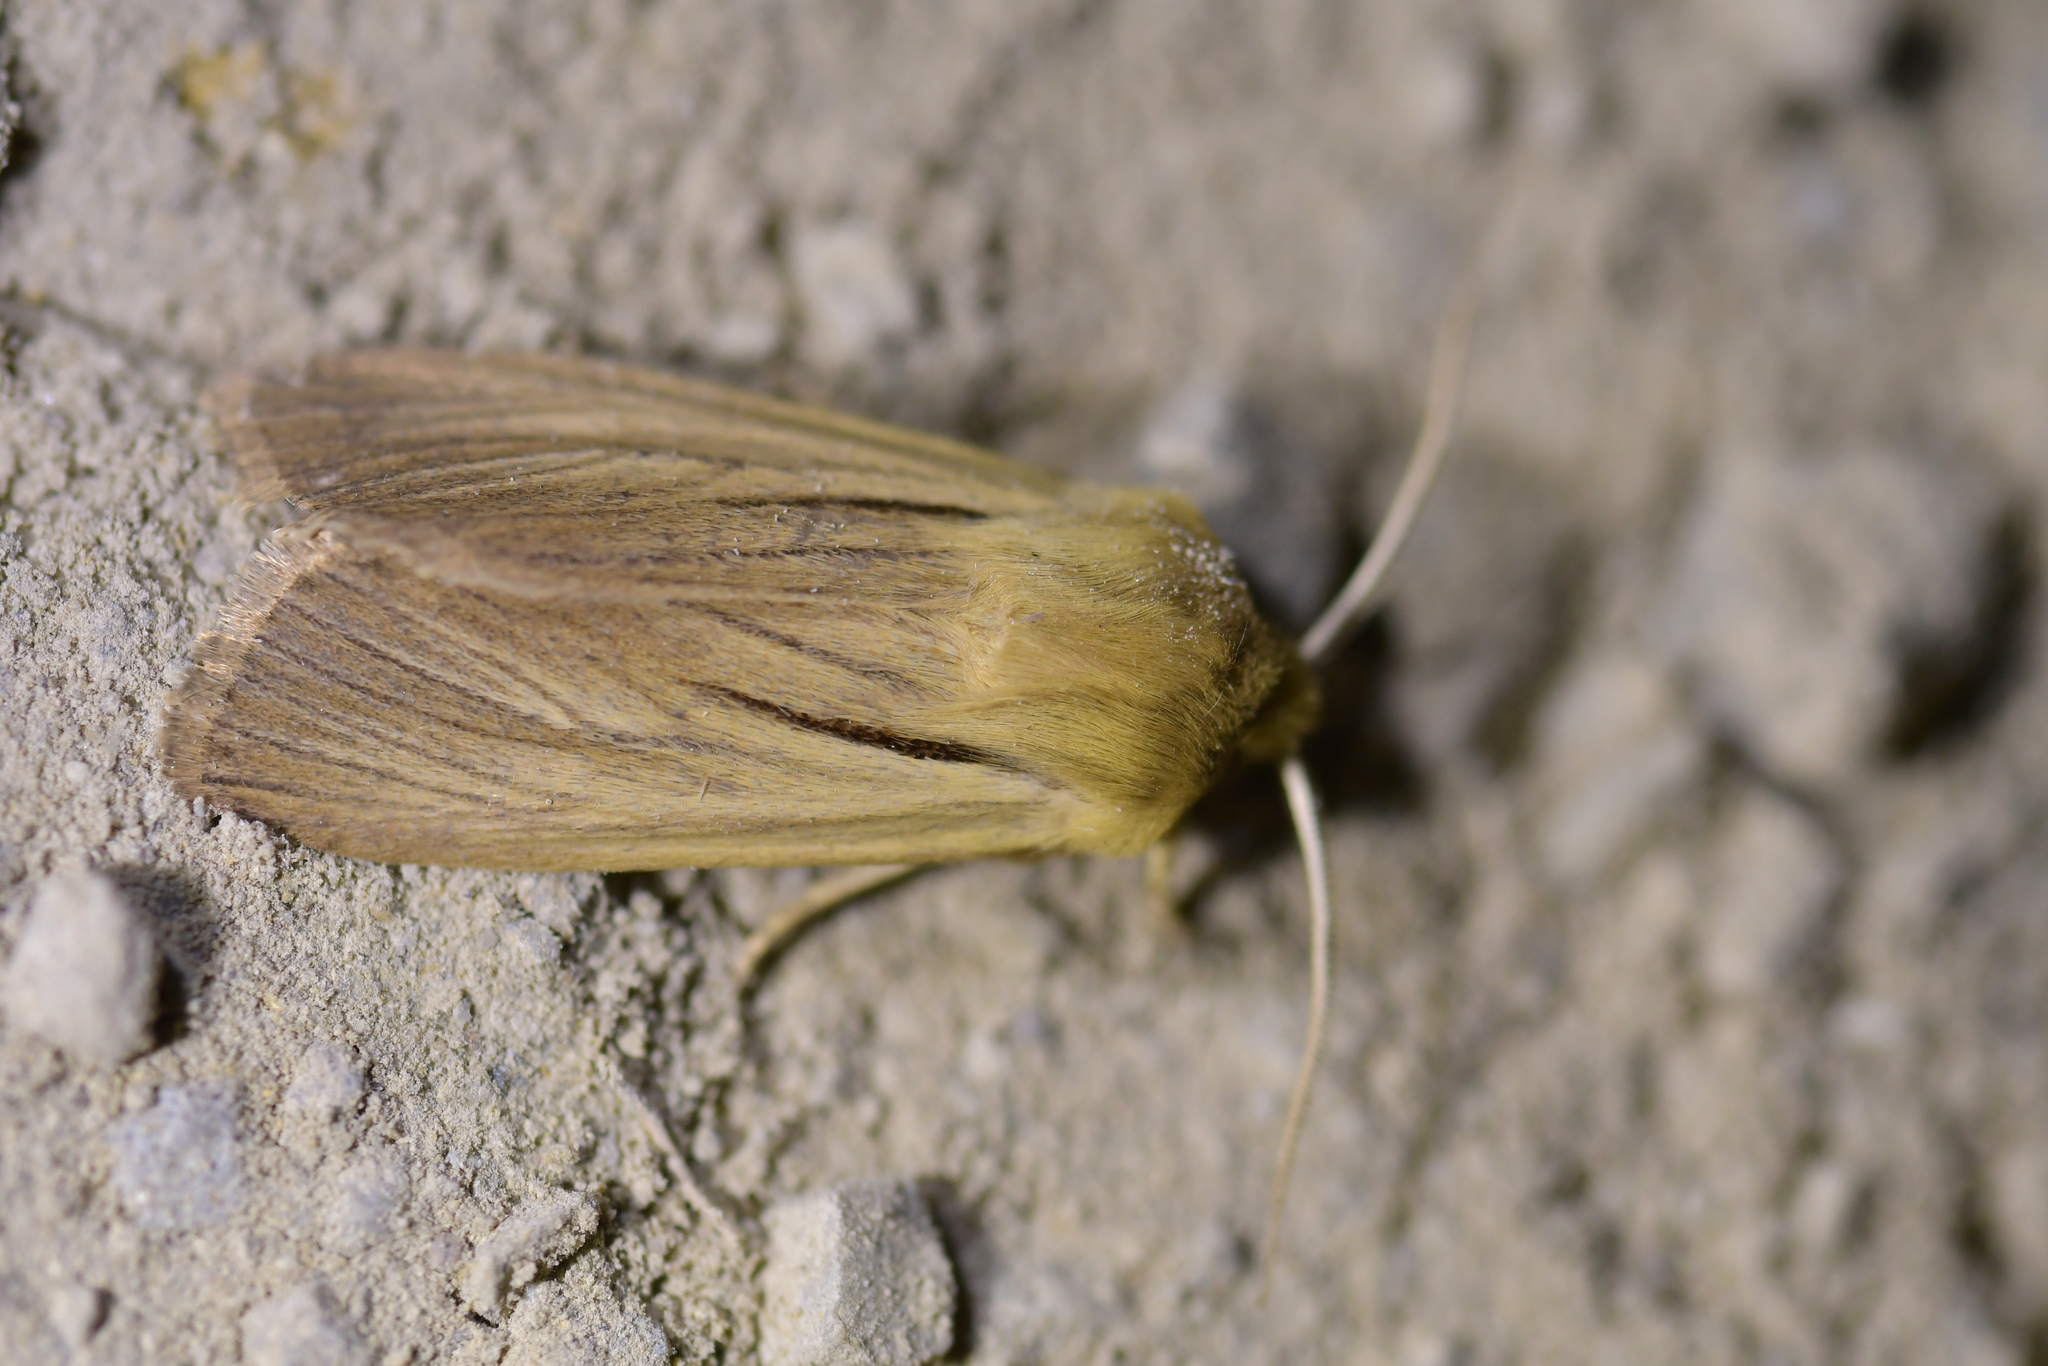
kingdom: Animalia
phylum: Arthropoda
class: Insecta
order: Lepidoptera
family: Noctuidae
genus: Ichneutica
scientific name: Ichneutica
